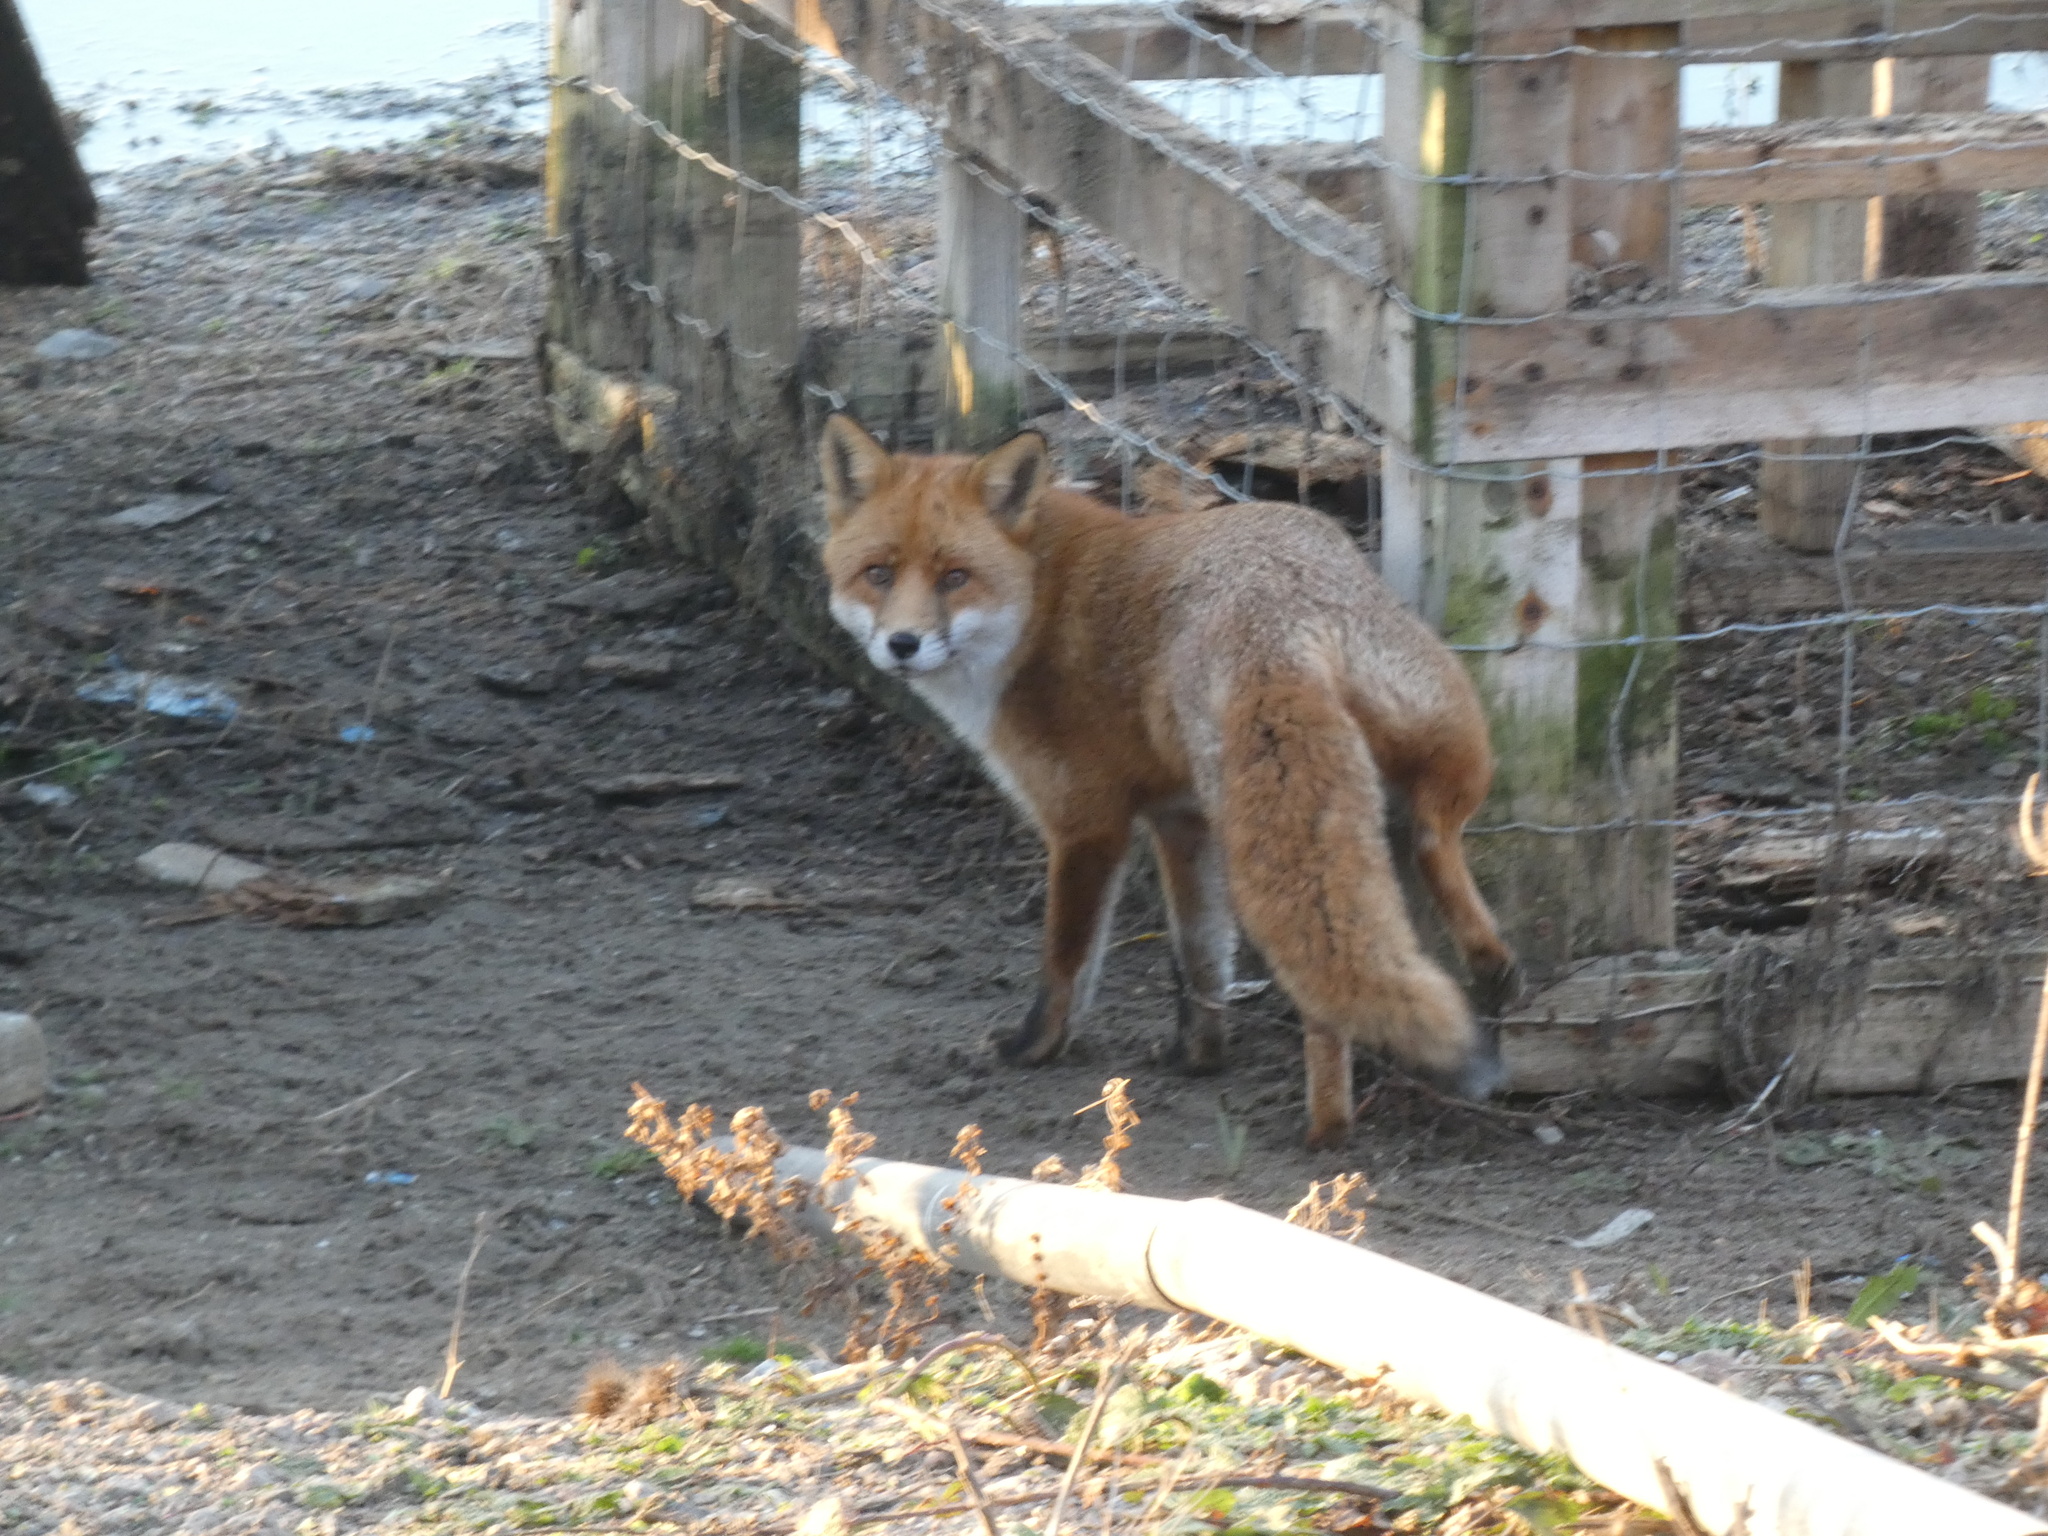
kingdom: Animalia
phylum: Chordata
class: Mammalia
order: Carnivora
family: Canidae
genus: Vulpes
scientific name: Vulpes vulpes
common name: Red fox
